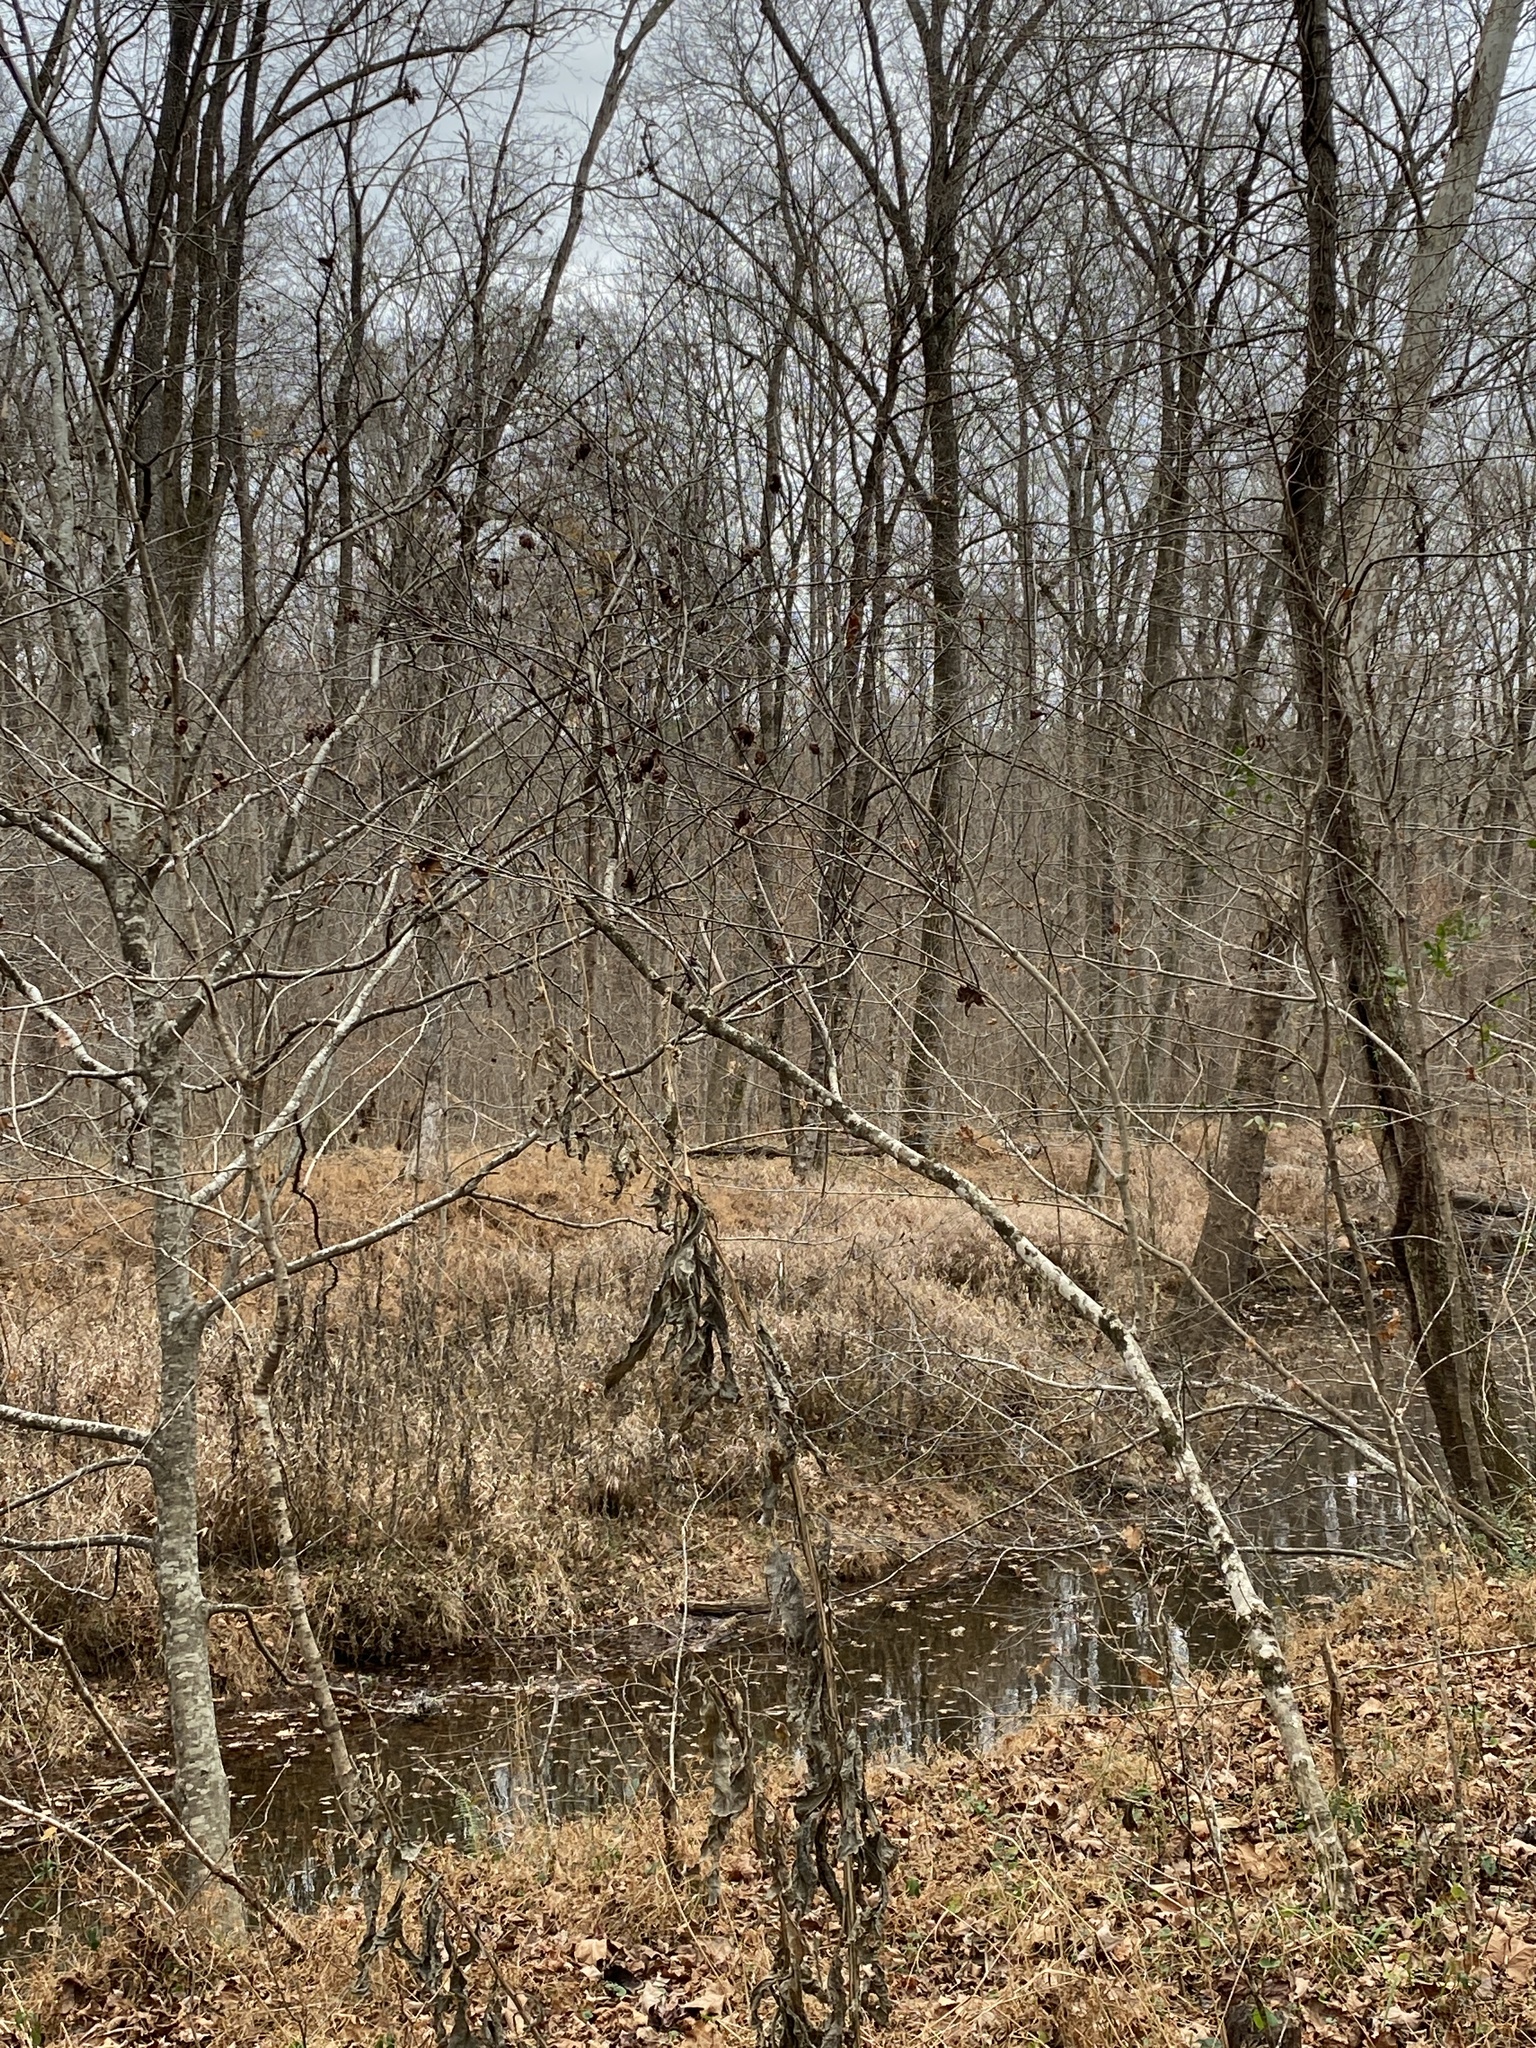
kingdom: Plantae
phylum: Tracheophyta
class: Magnoliopsida
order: Crossosomatales
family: Staphyleaceae
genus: Staphylea
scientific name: Staphylea trifolia
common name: American bladdernut
